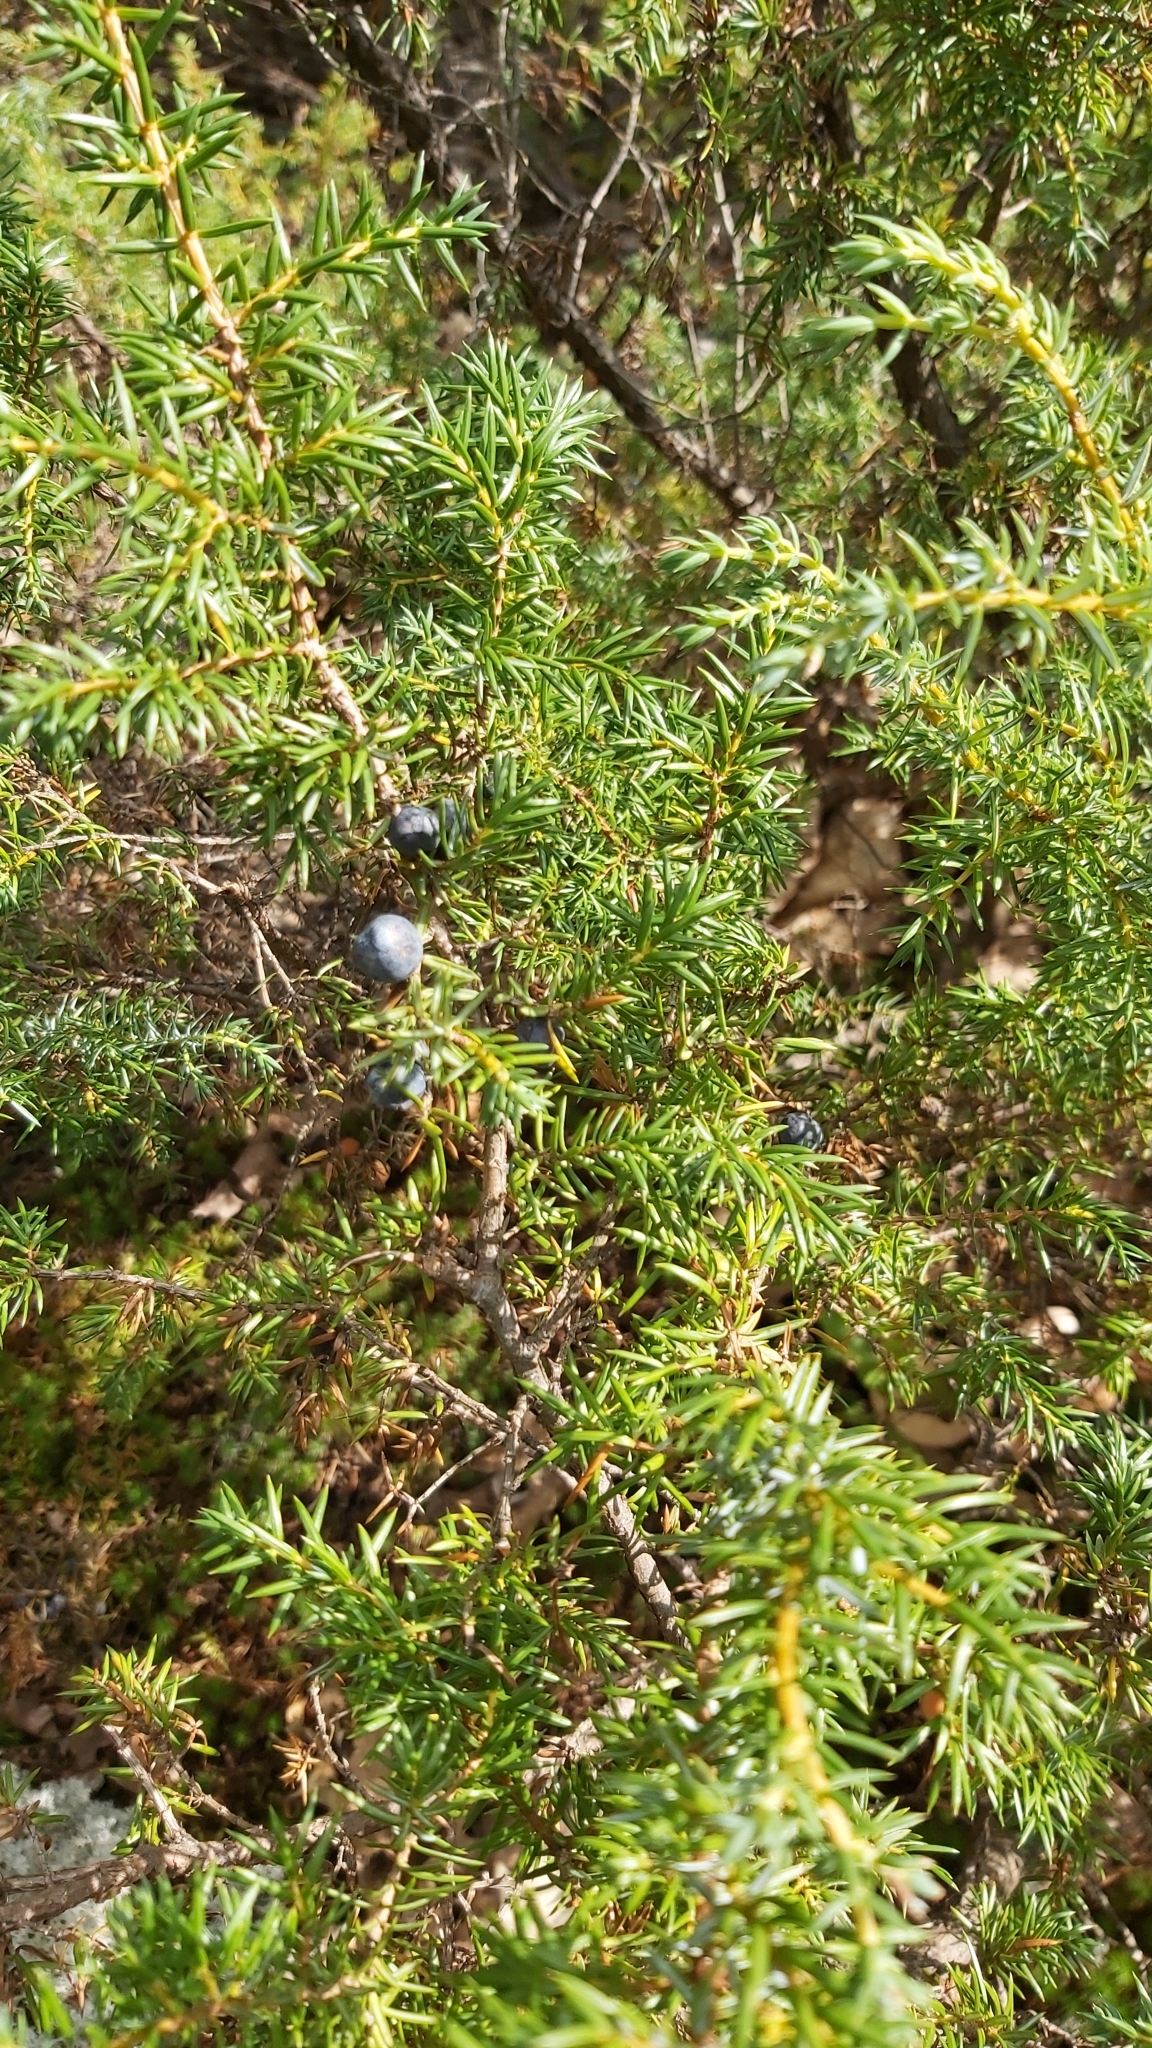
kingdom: Plantae
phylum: Tracheophyta
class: Pinopsida
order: Pinales
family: Cupressaceae
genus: Juniperus
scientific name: Juniperus communis
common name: Common juniper
